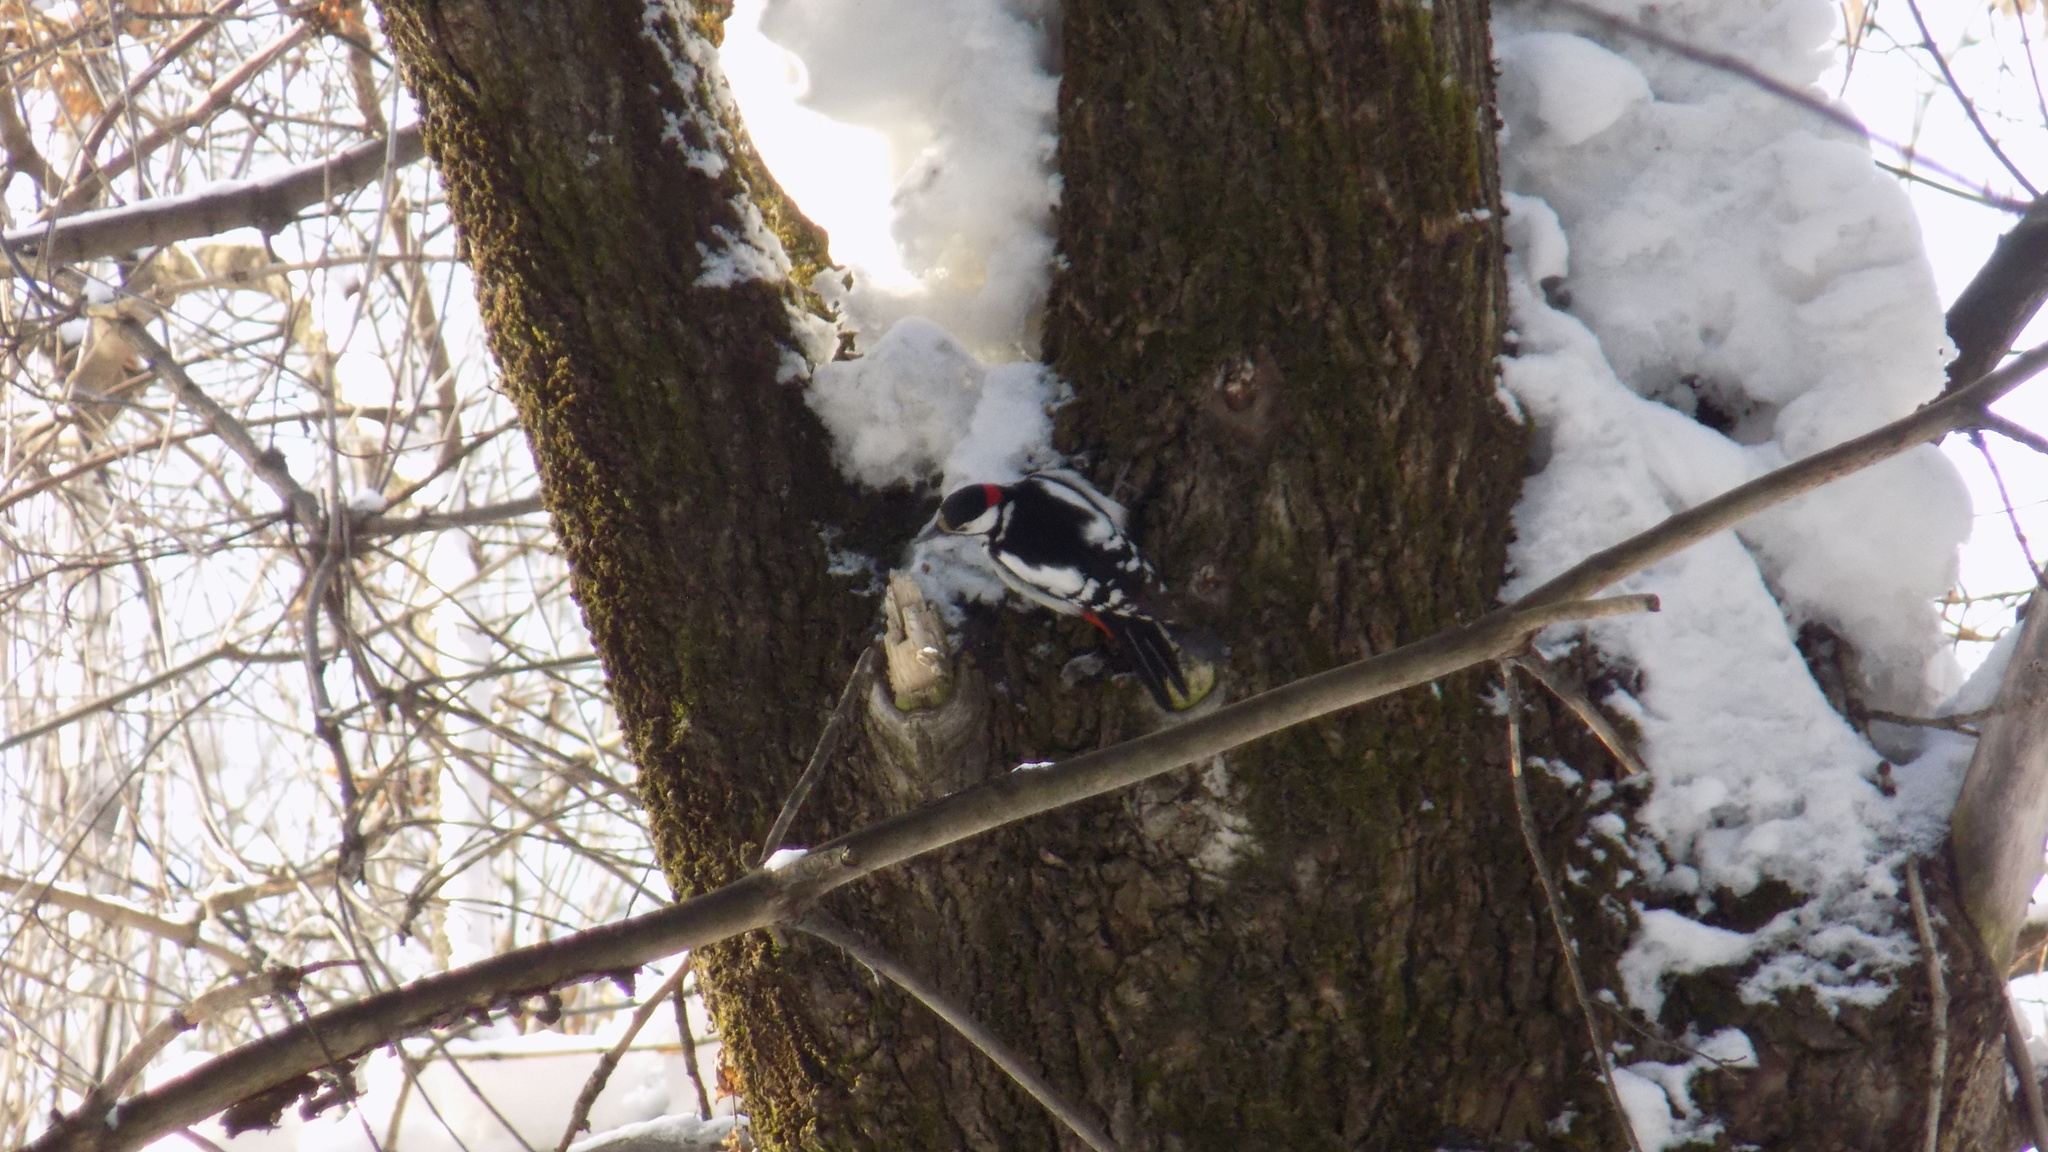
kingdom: Animalia
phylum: Chordata
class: Aves
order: Piciformes
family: Picidae
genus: Dendrocopos
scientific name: Dendrocopos major
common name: Great spotted woodpecker
